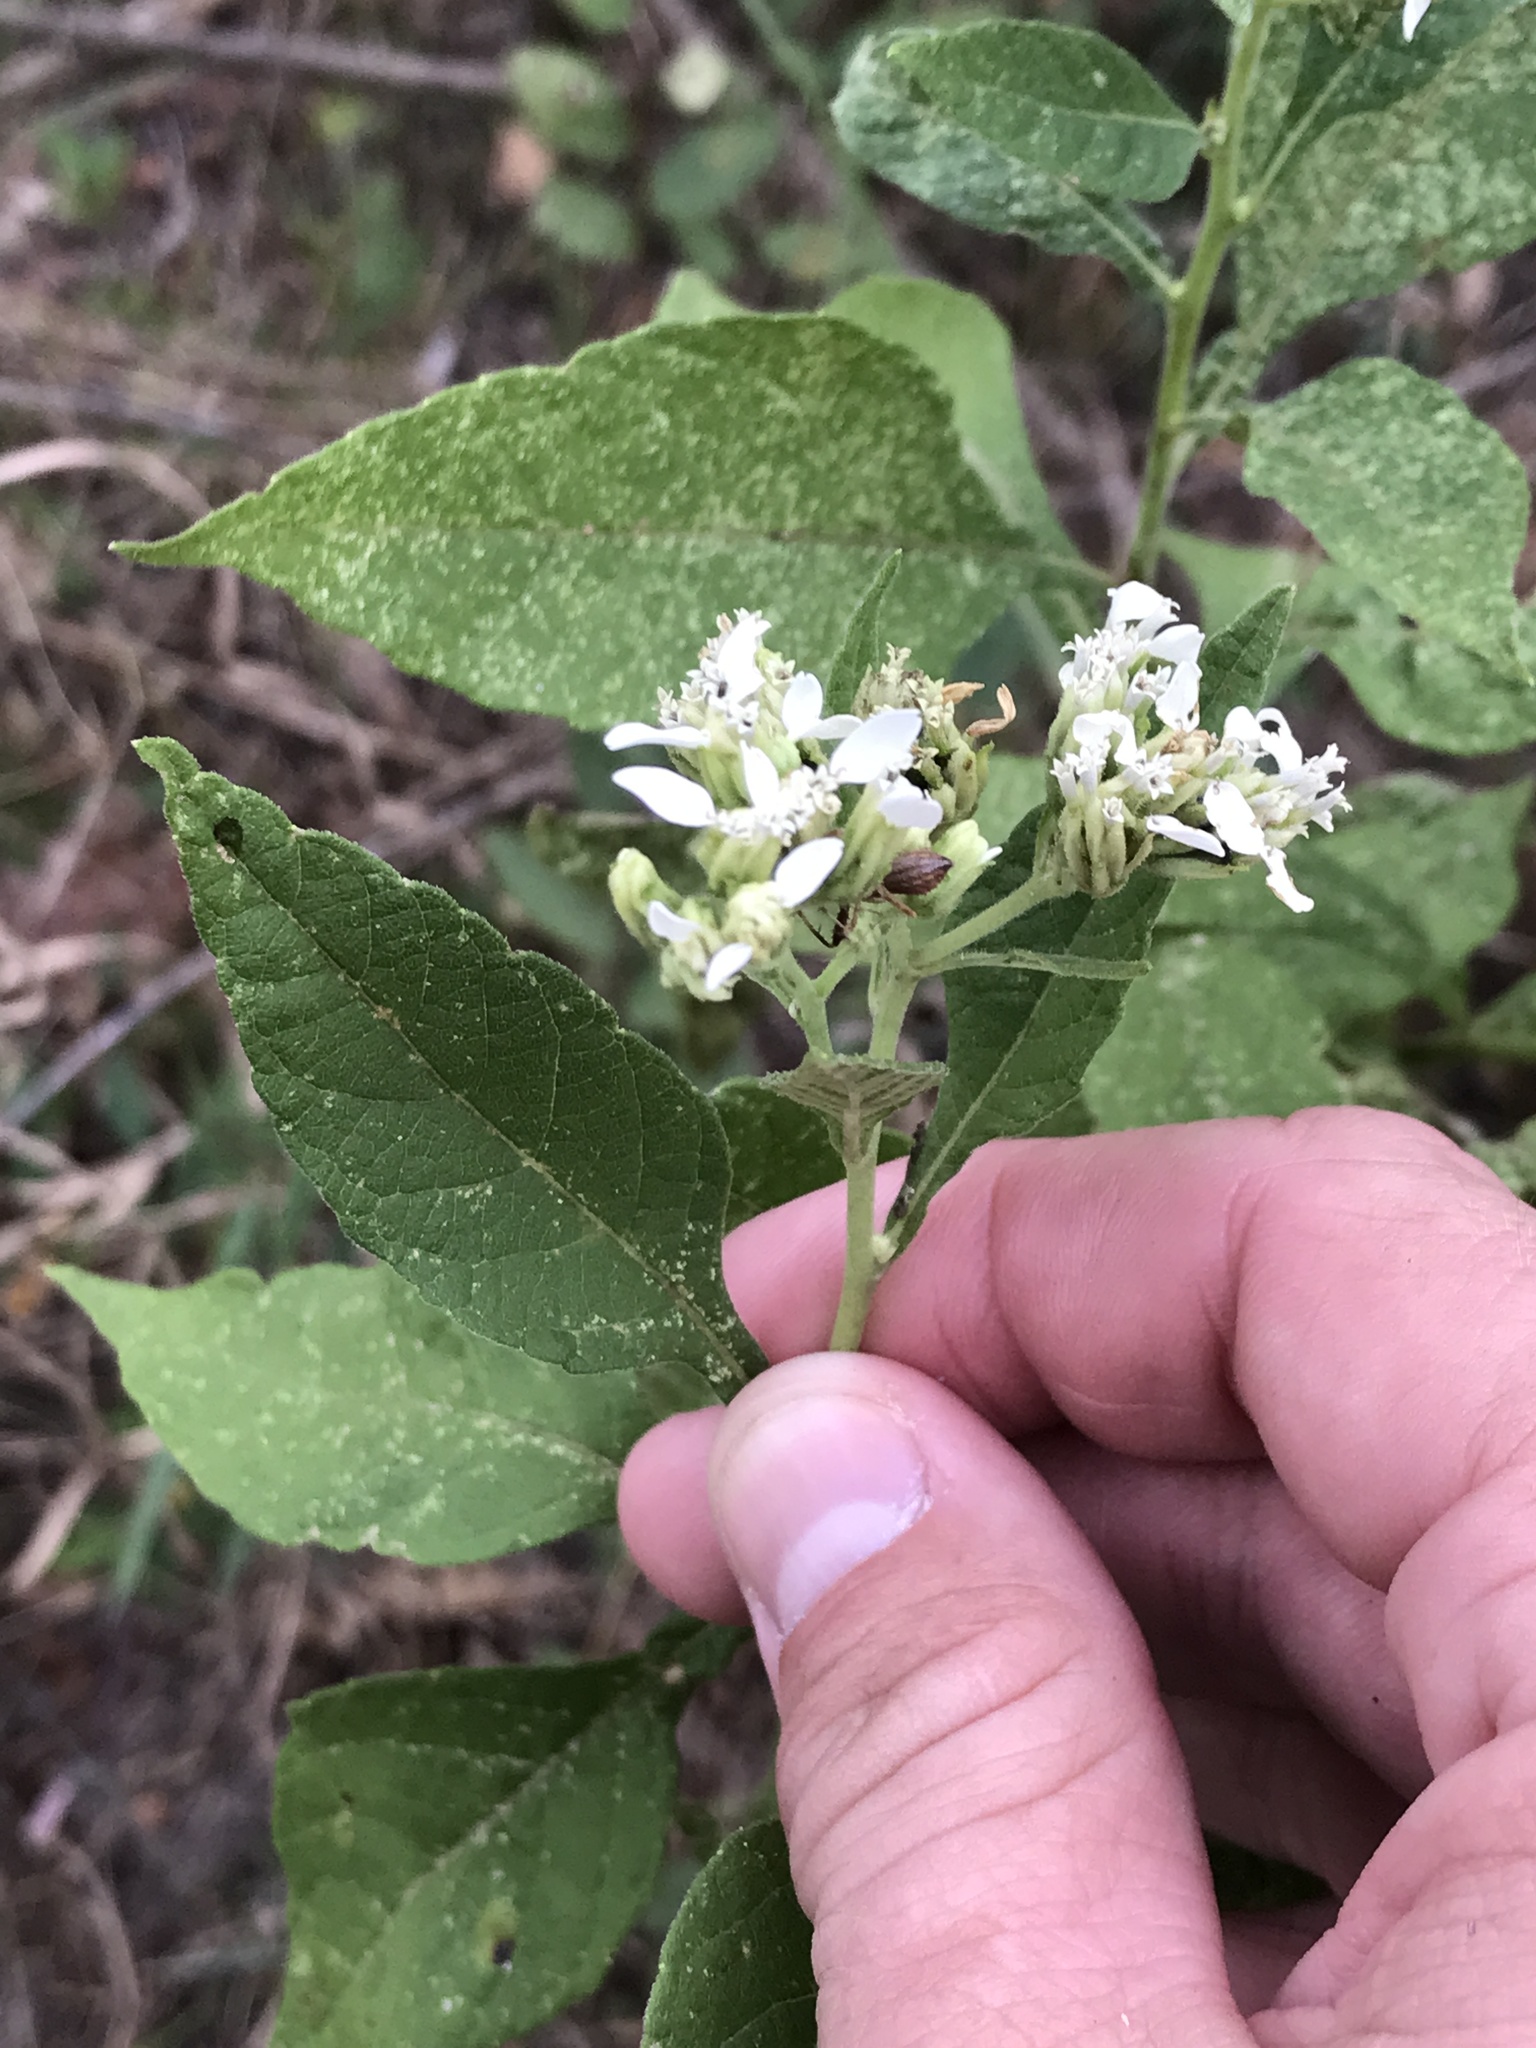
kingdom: Plantae
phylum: Tracheophyta
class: Magnoliopsida
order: Asterales
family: Asteraceae
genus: Verbesina
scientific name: Verbesina virginica
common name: Frostweed
